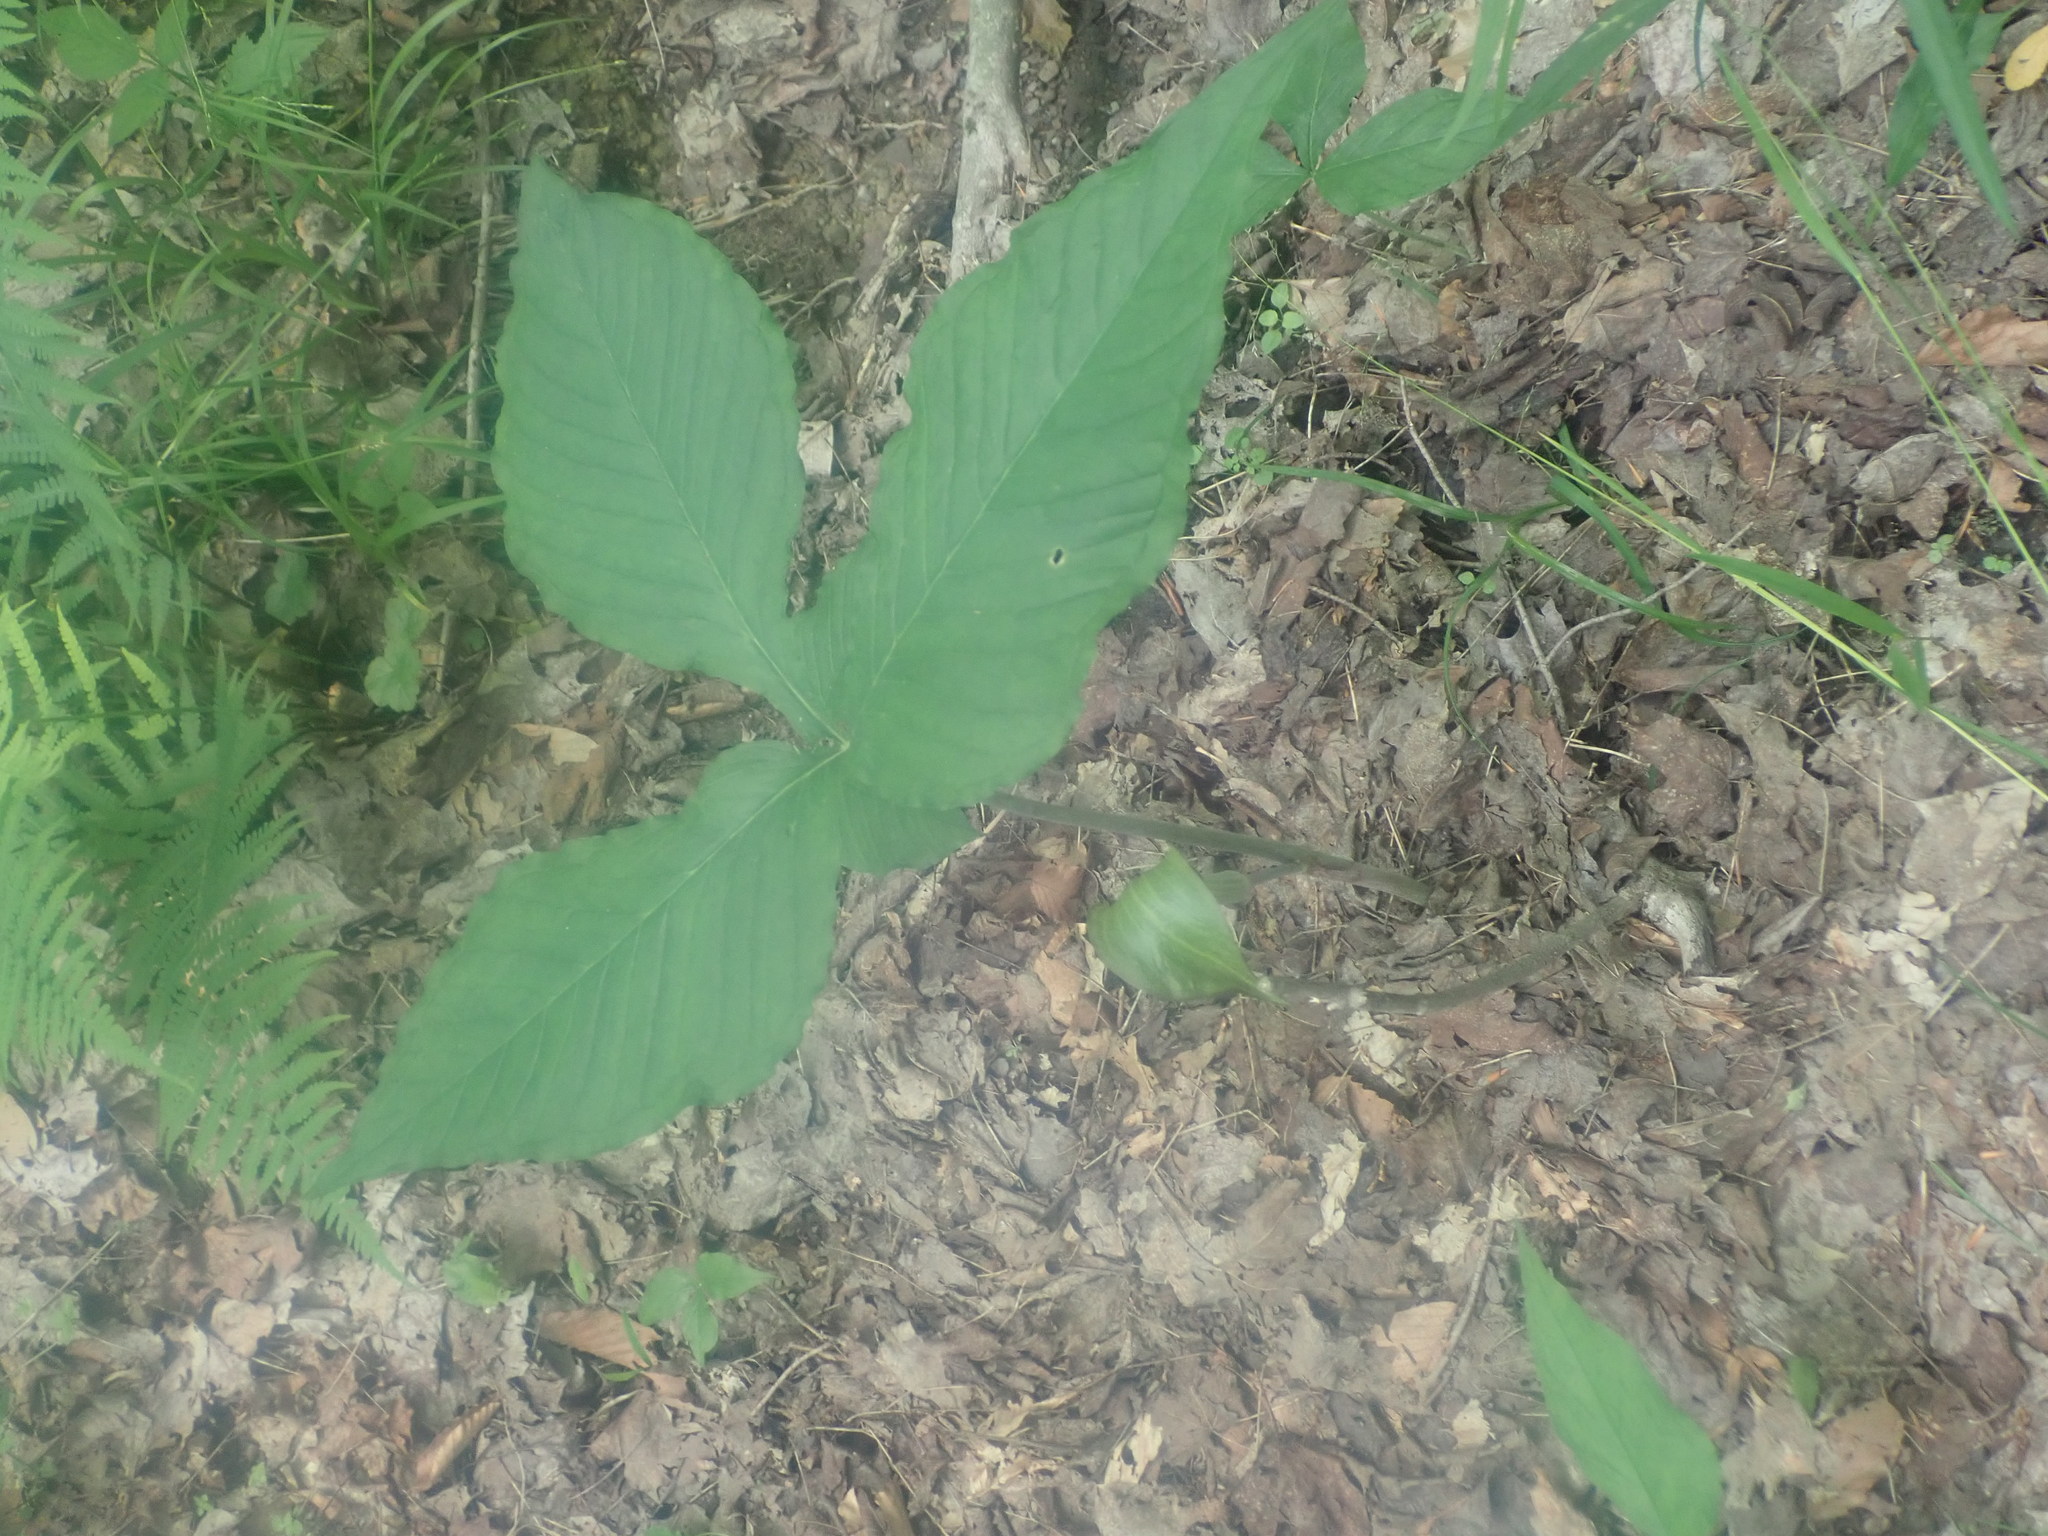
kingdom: Plantae
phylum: Tracheophyta
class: Liliopsida
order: Alismatales
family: Araceae
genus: Arisaema
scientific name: Arisaema triphyllum
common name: Jack-in-the-pulpit
